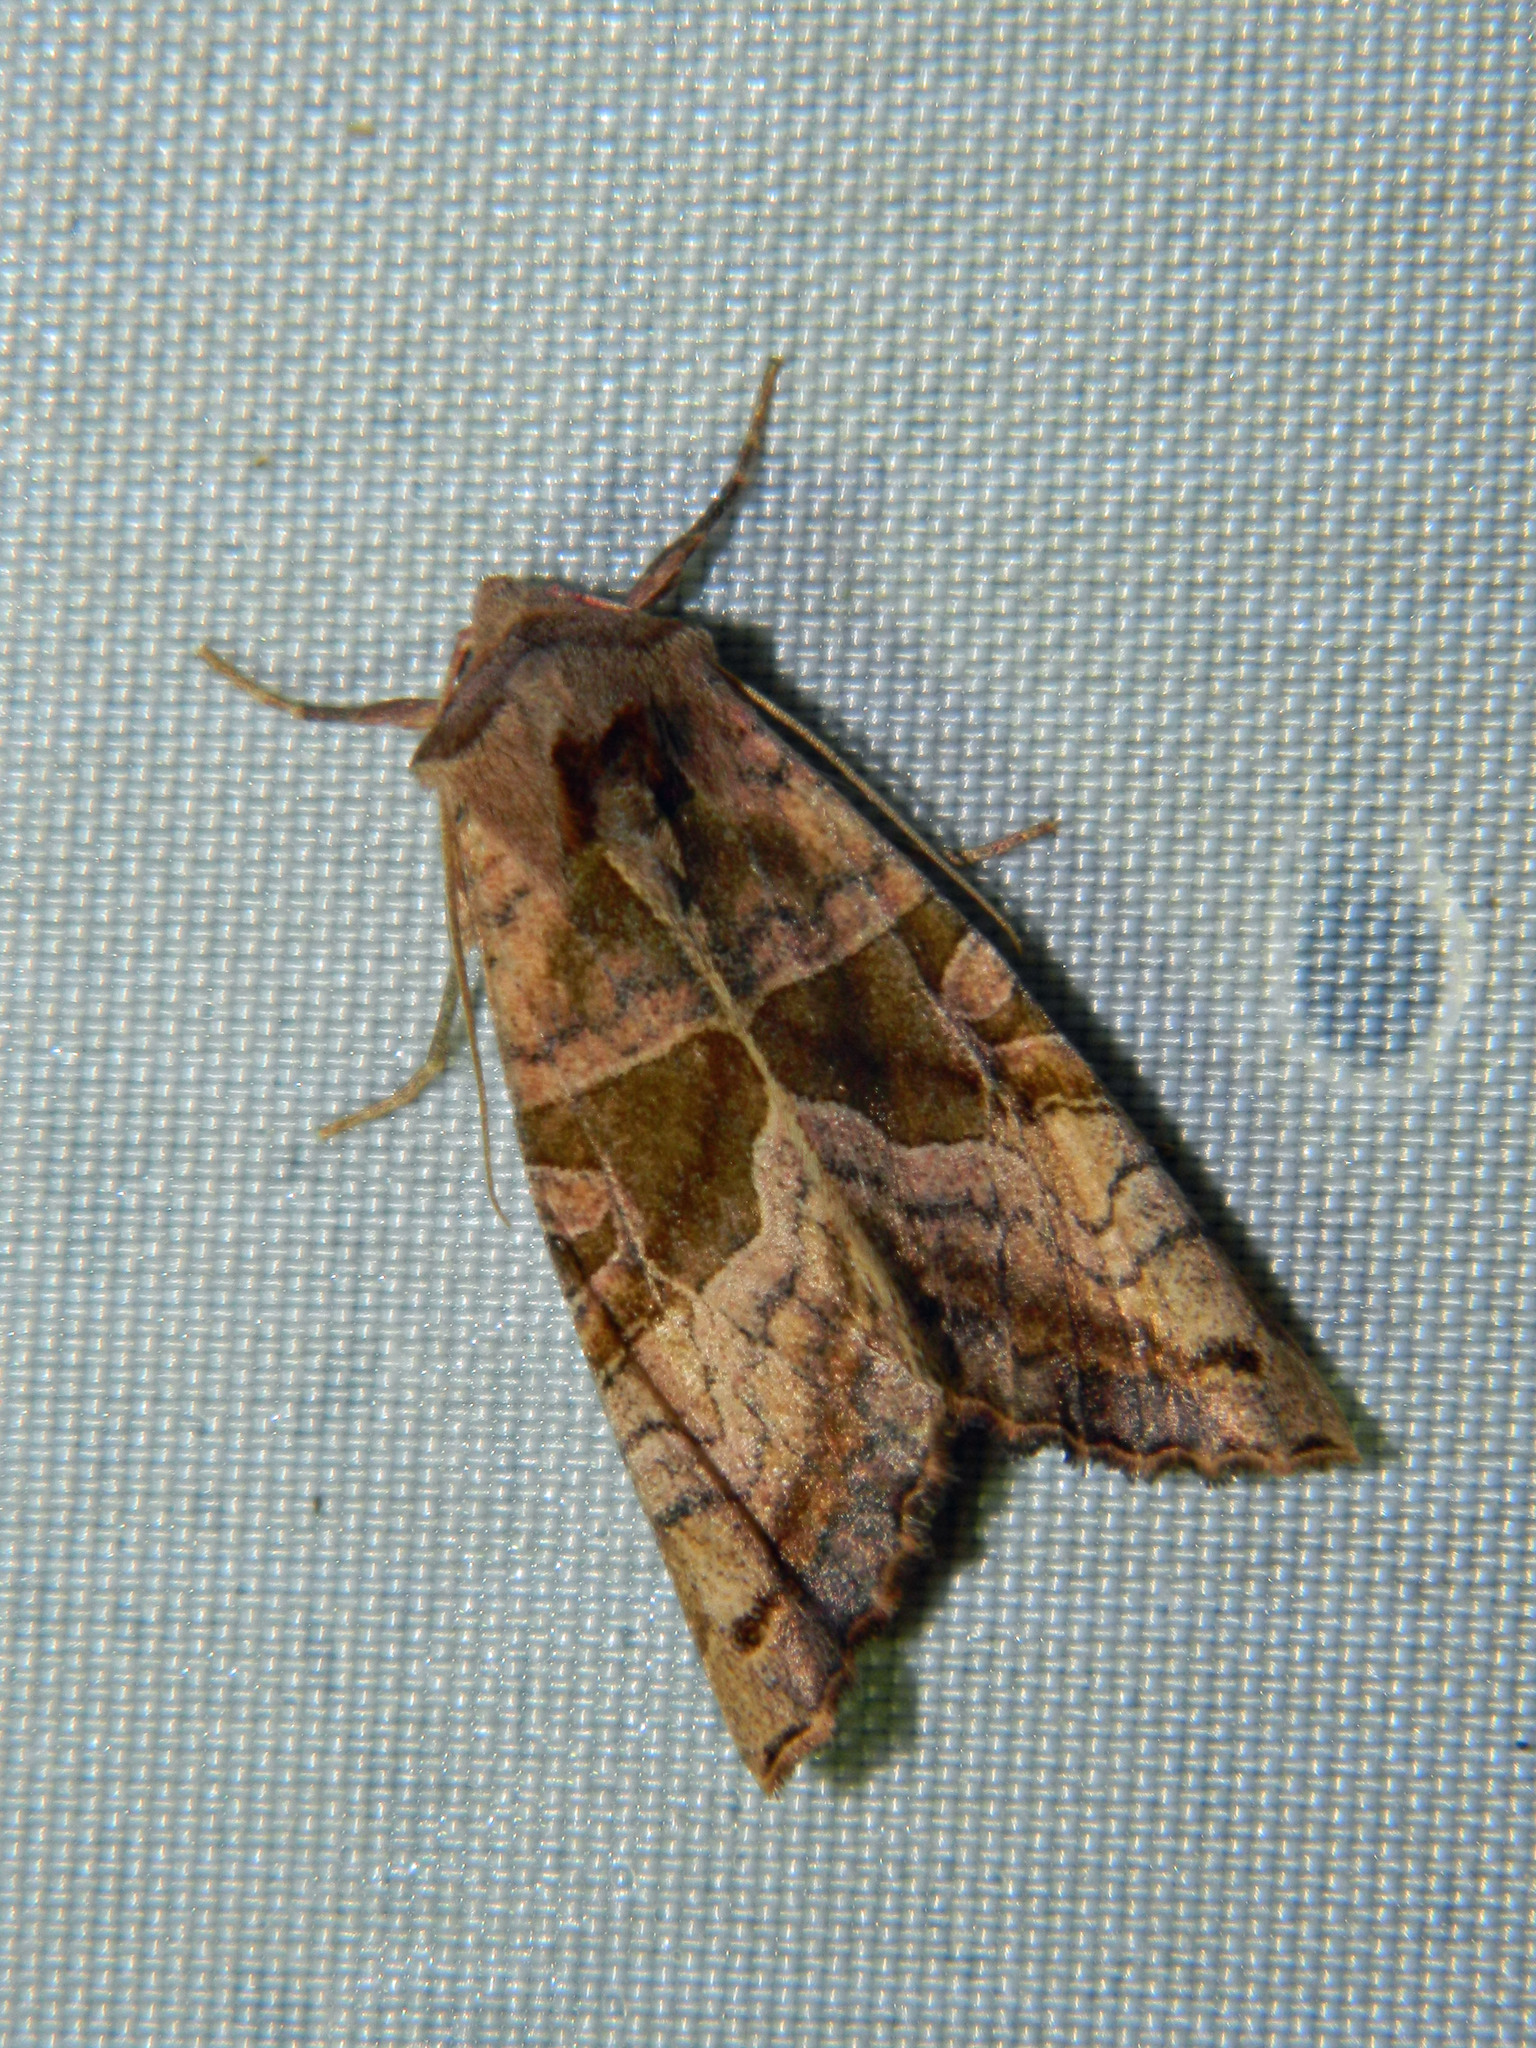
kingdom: Animalia
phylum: Arthropoda
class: Insecta
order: Lepidoptera
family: Noctuidae
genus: Phlogophora
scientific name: Phlogophora periculosa
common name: Brown angle shades
